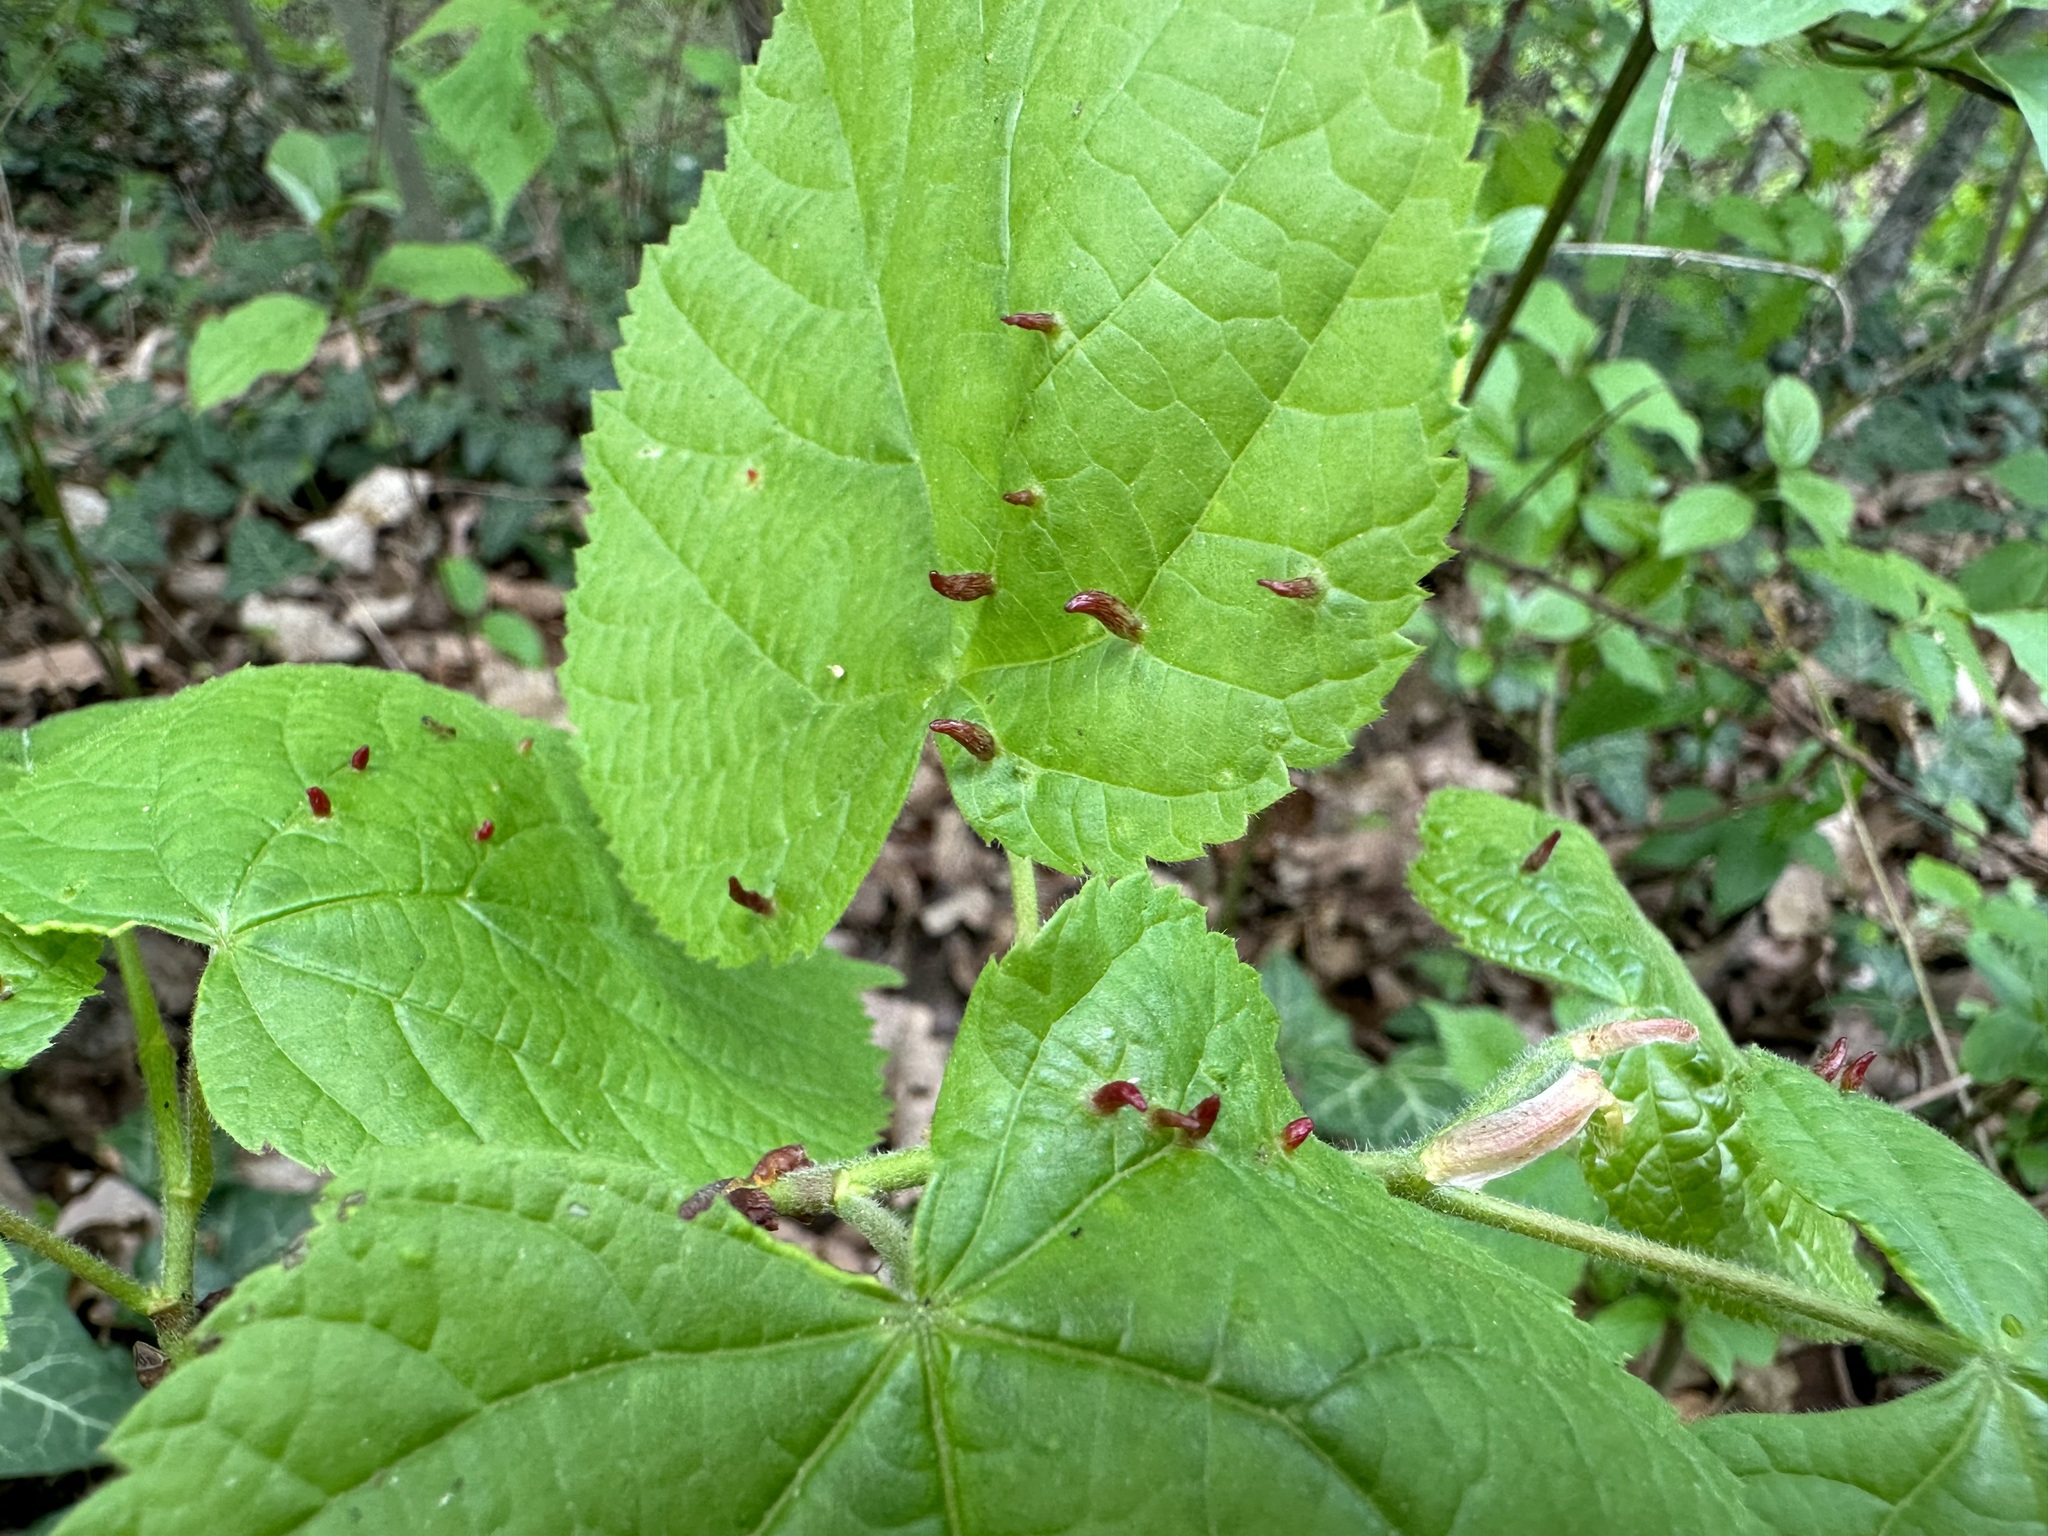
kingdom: Animalia
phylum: Arthropoda
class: Arachnida
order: Trombidiformes
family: Eriophyidae
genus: Eriophyes
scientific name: Eriophyes tiliae
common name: Red nail gall mite
